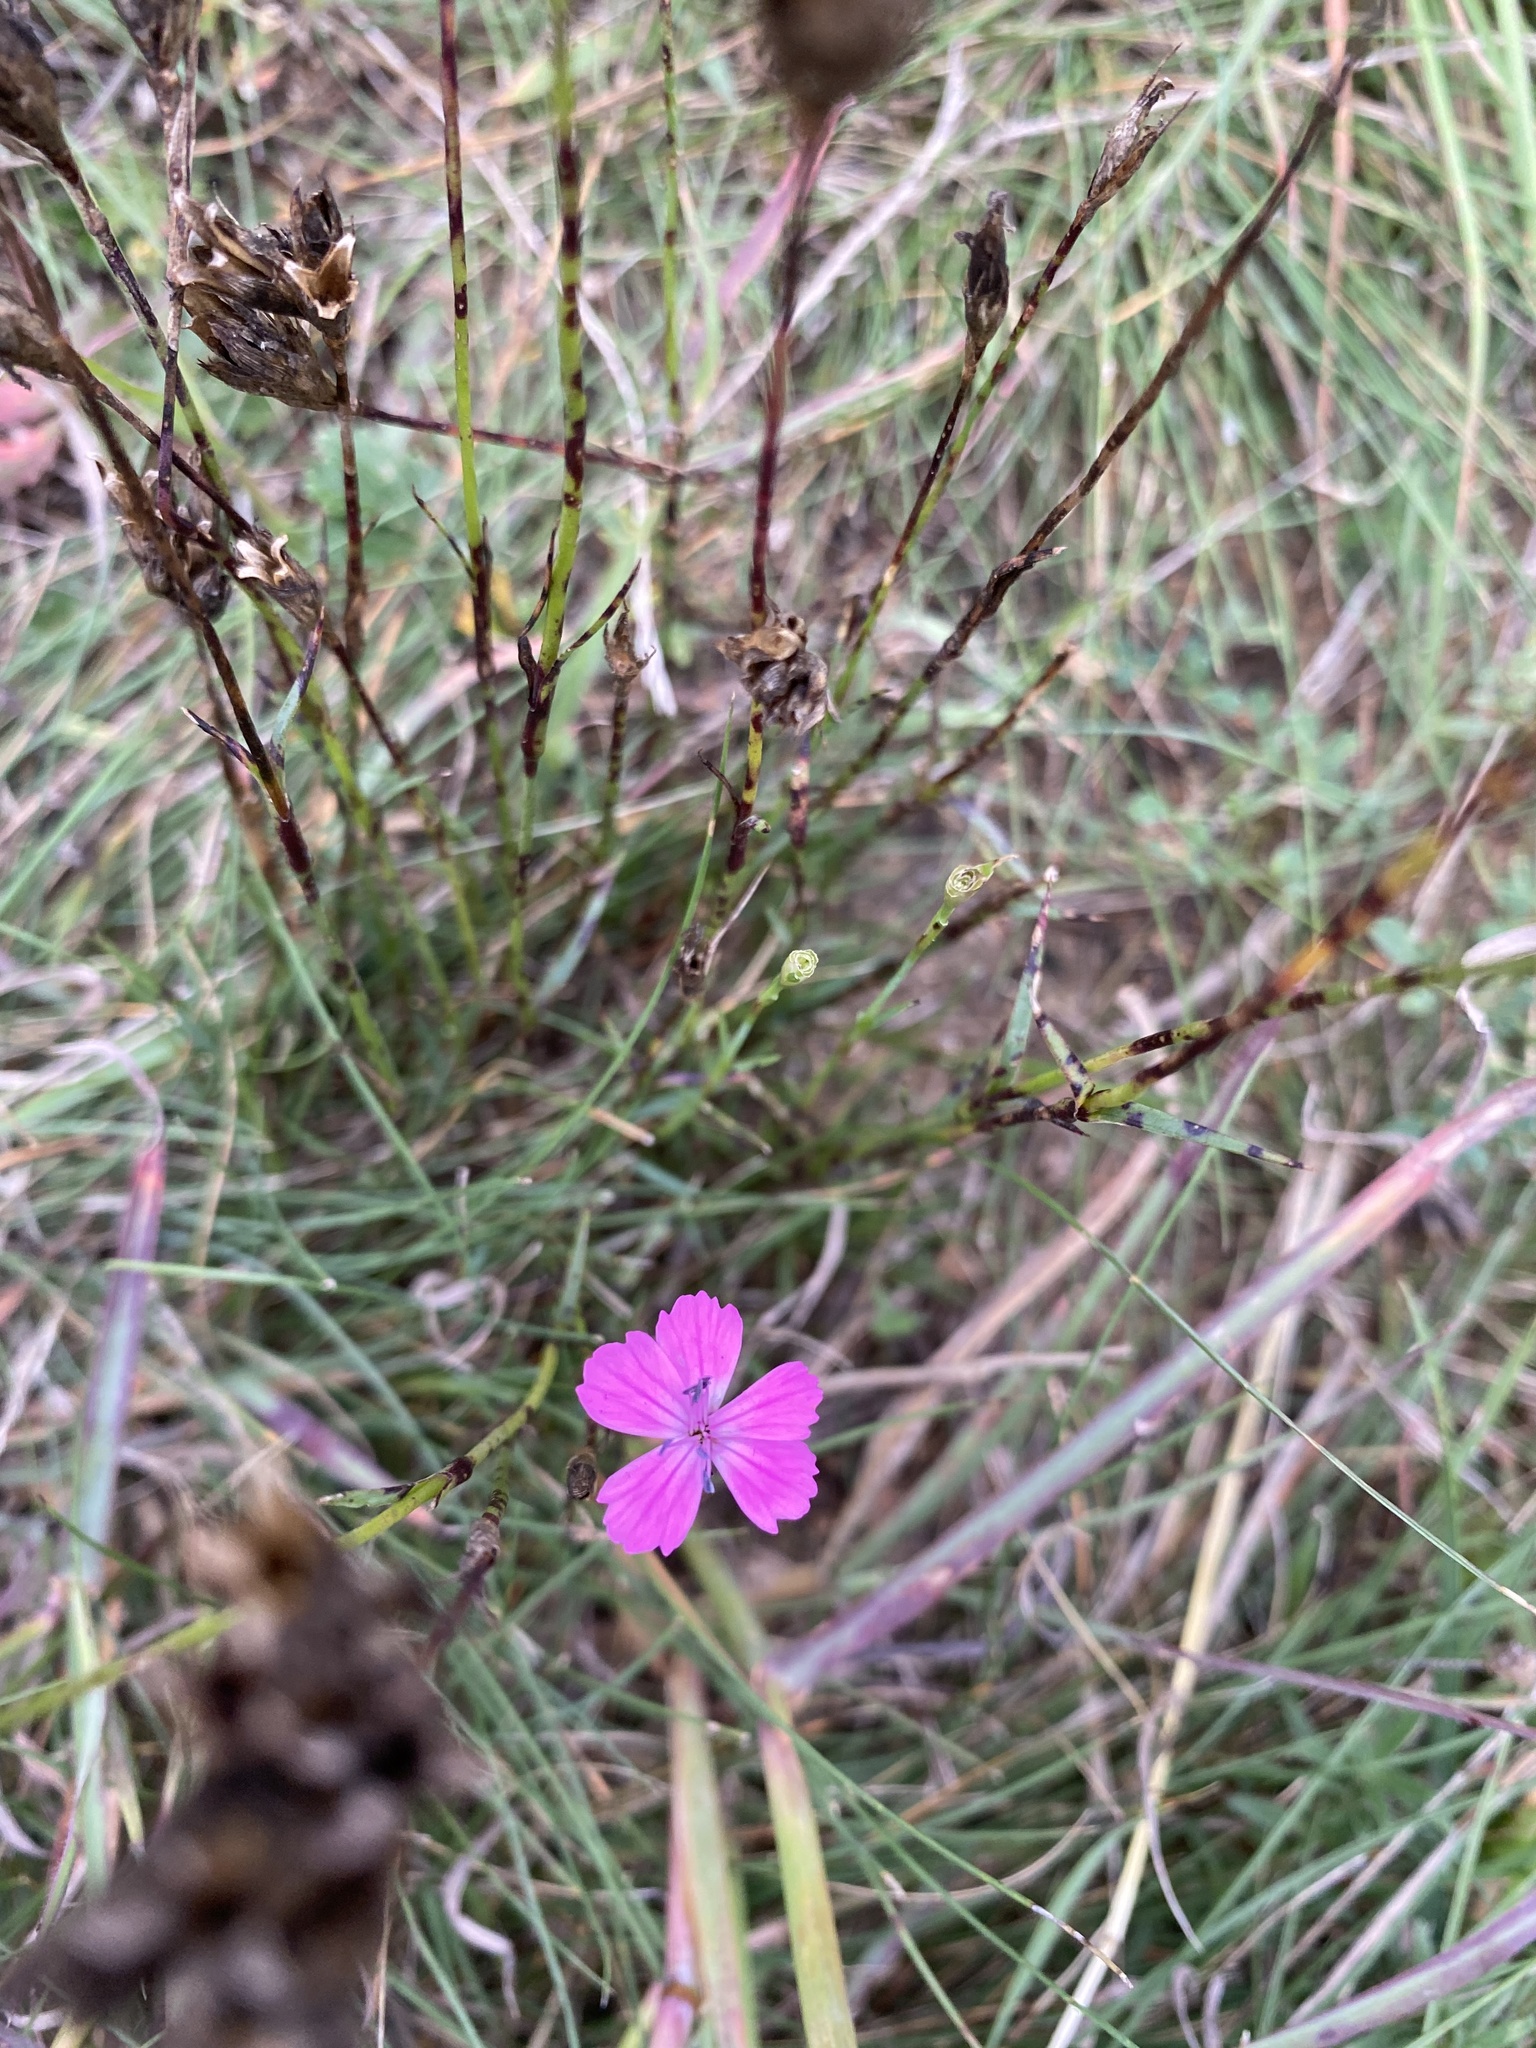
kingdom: Plantae
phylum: Tracheophyta
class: Magnoliopsida
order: Caryophyllales
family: Caryophyllaceae
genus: Dianthus
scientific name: Dianthus carthusianorum
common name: Carthusian pink
